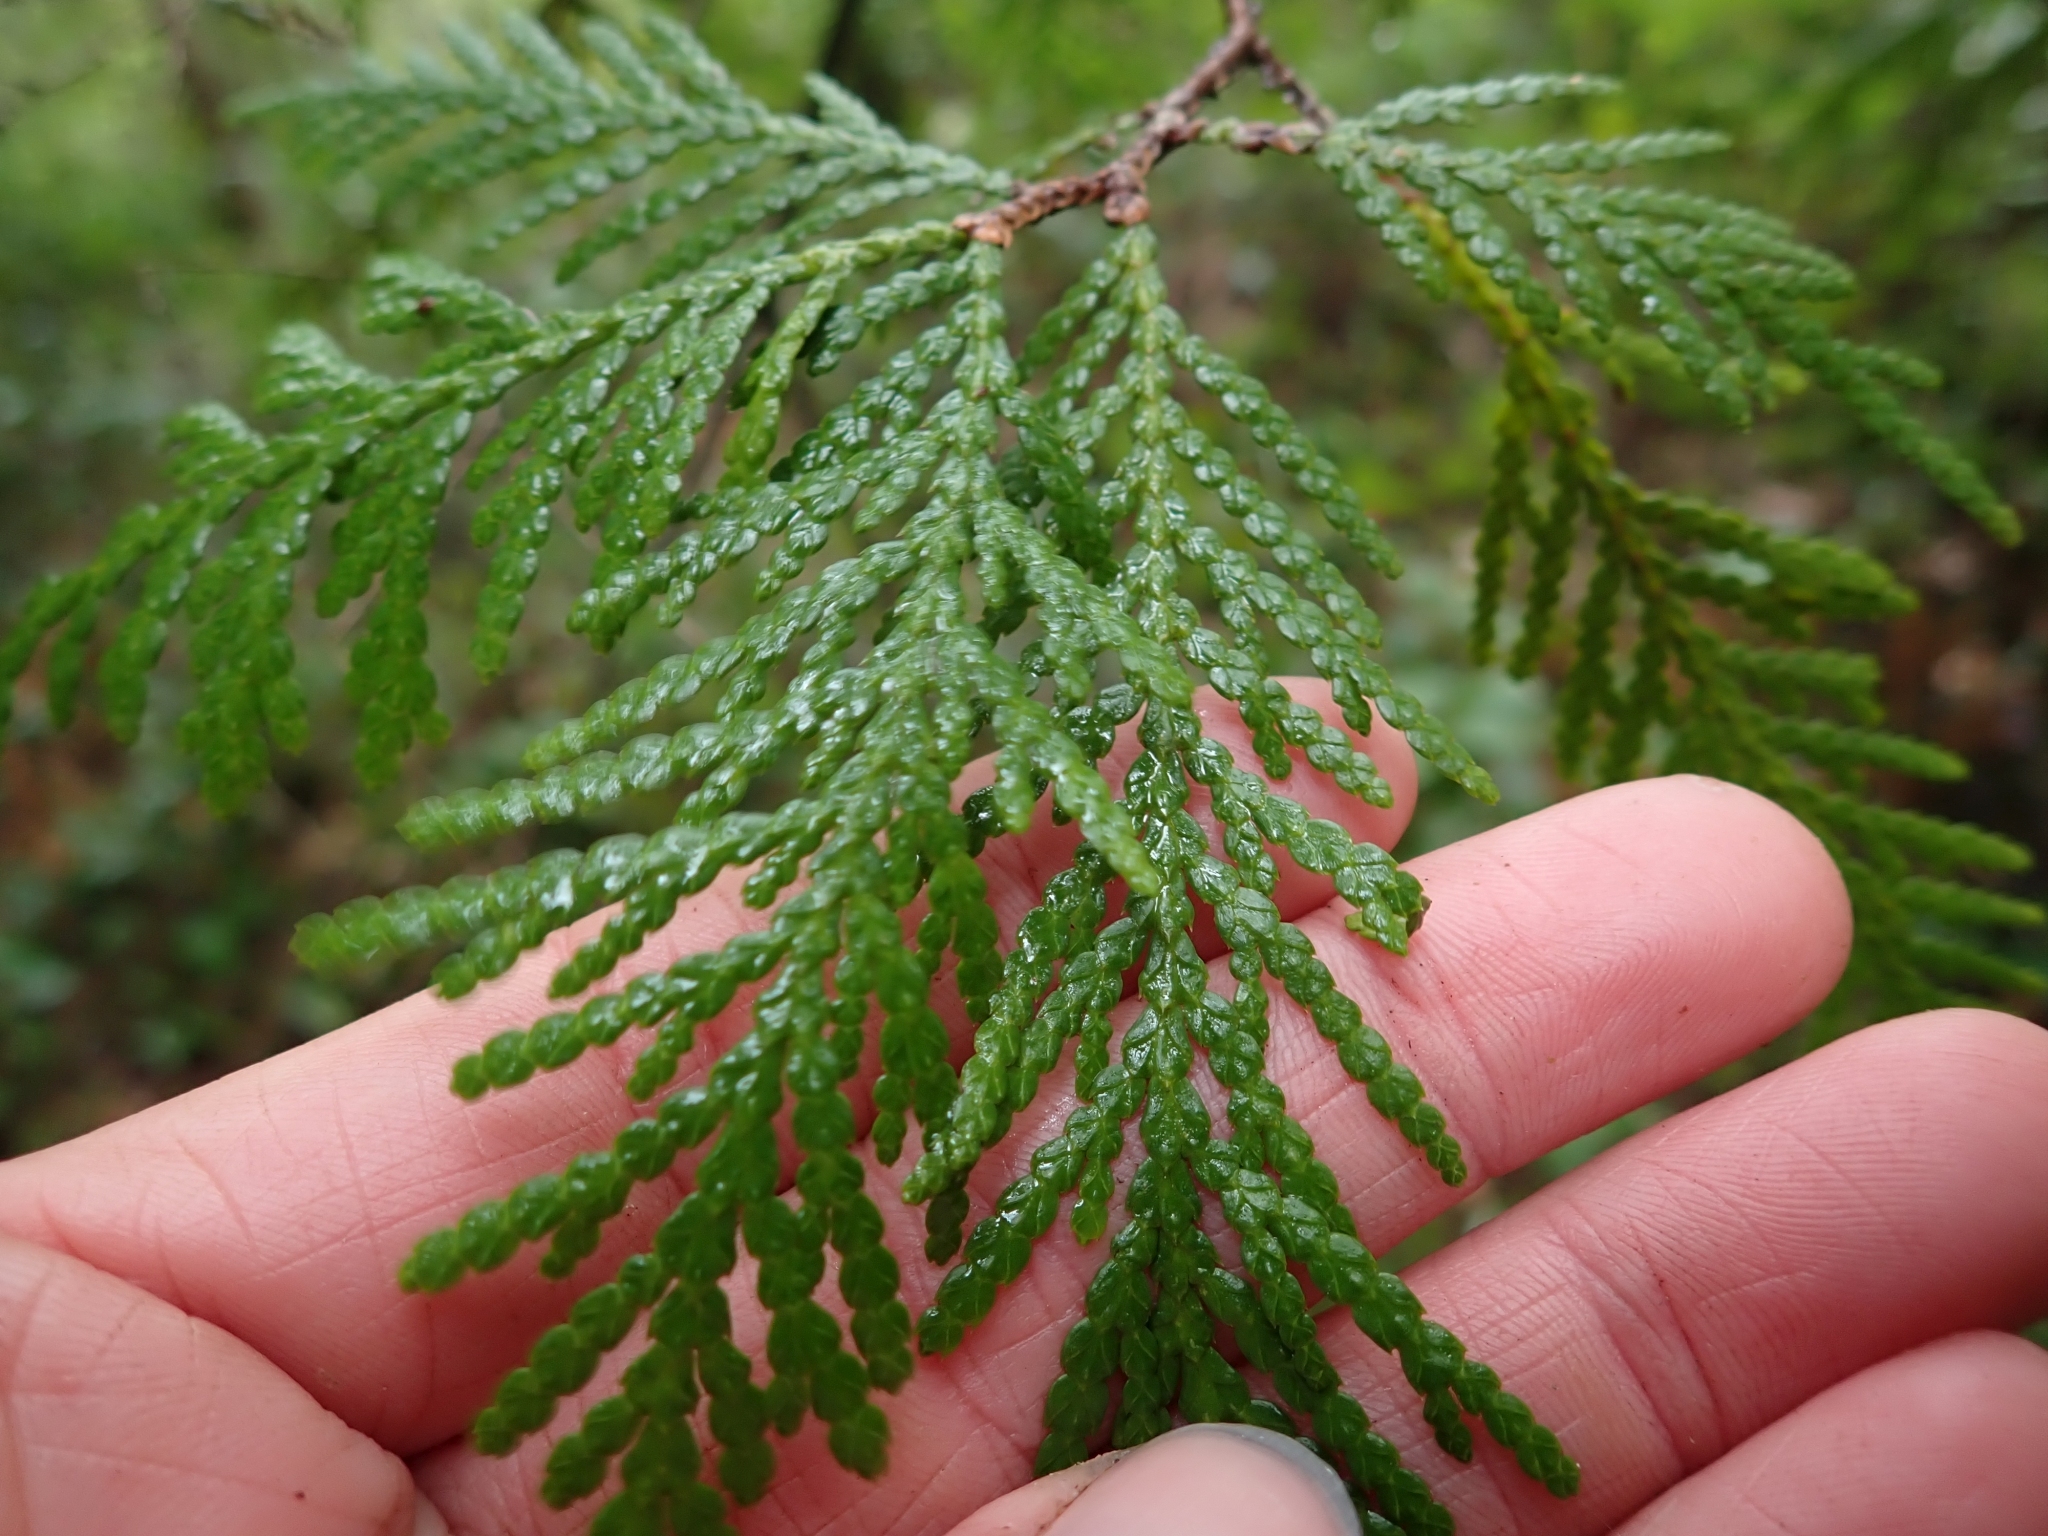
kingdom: Plantae
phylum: Tracheophyta
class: Pinopsida
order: Pinales
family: Cupressaceae
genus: Thuja
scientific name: Thuja plicata
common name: Western red-cedar
